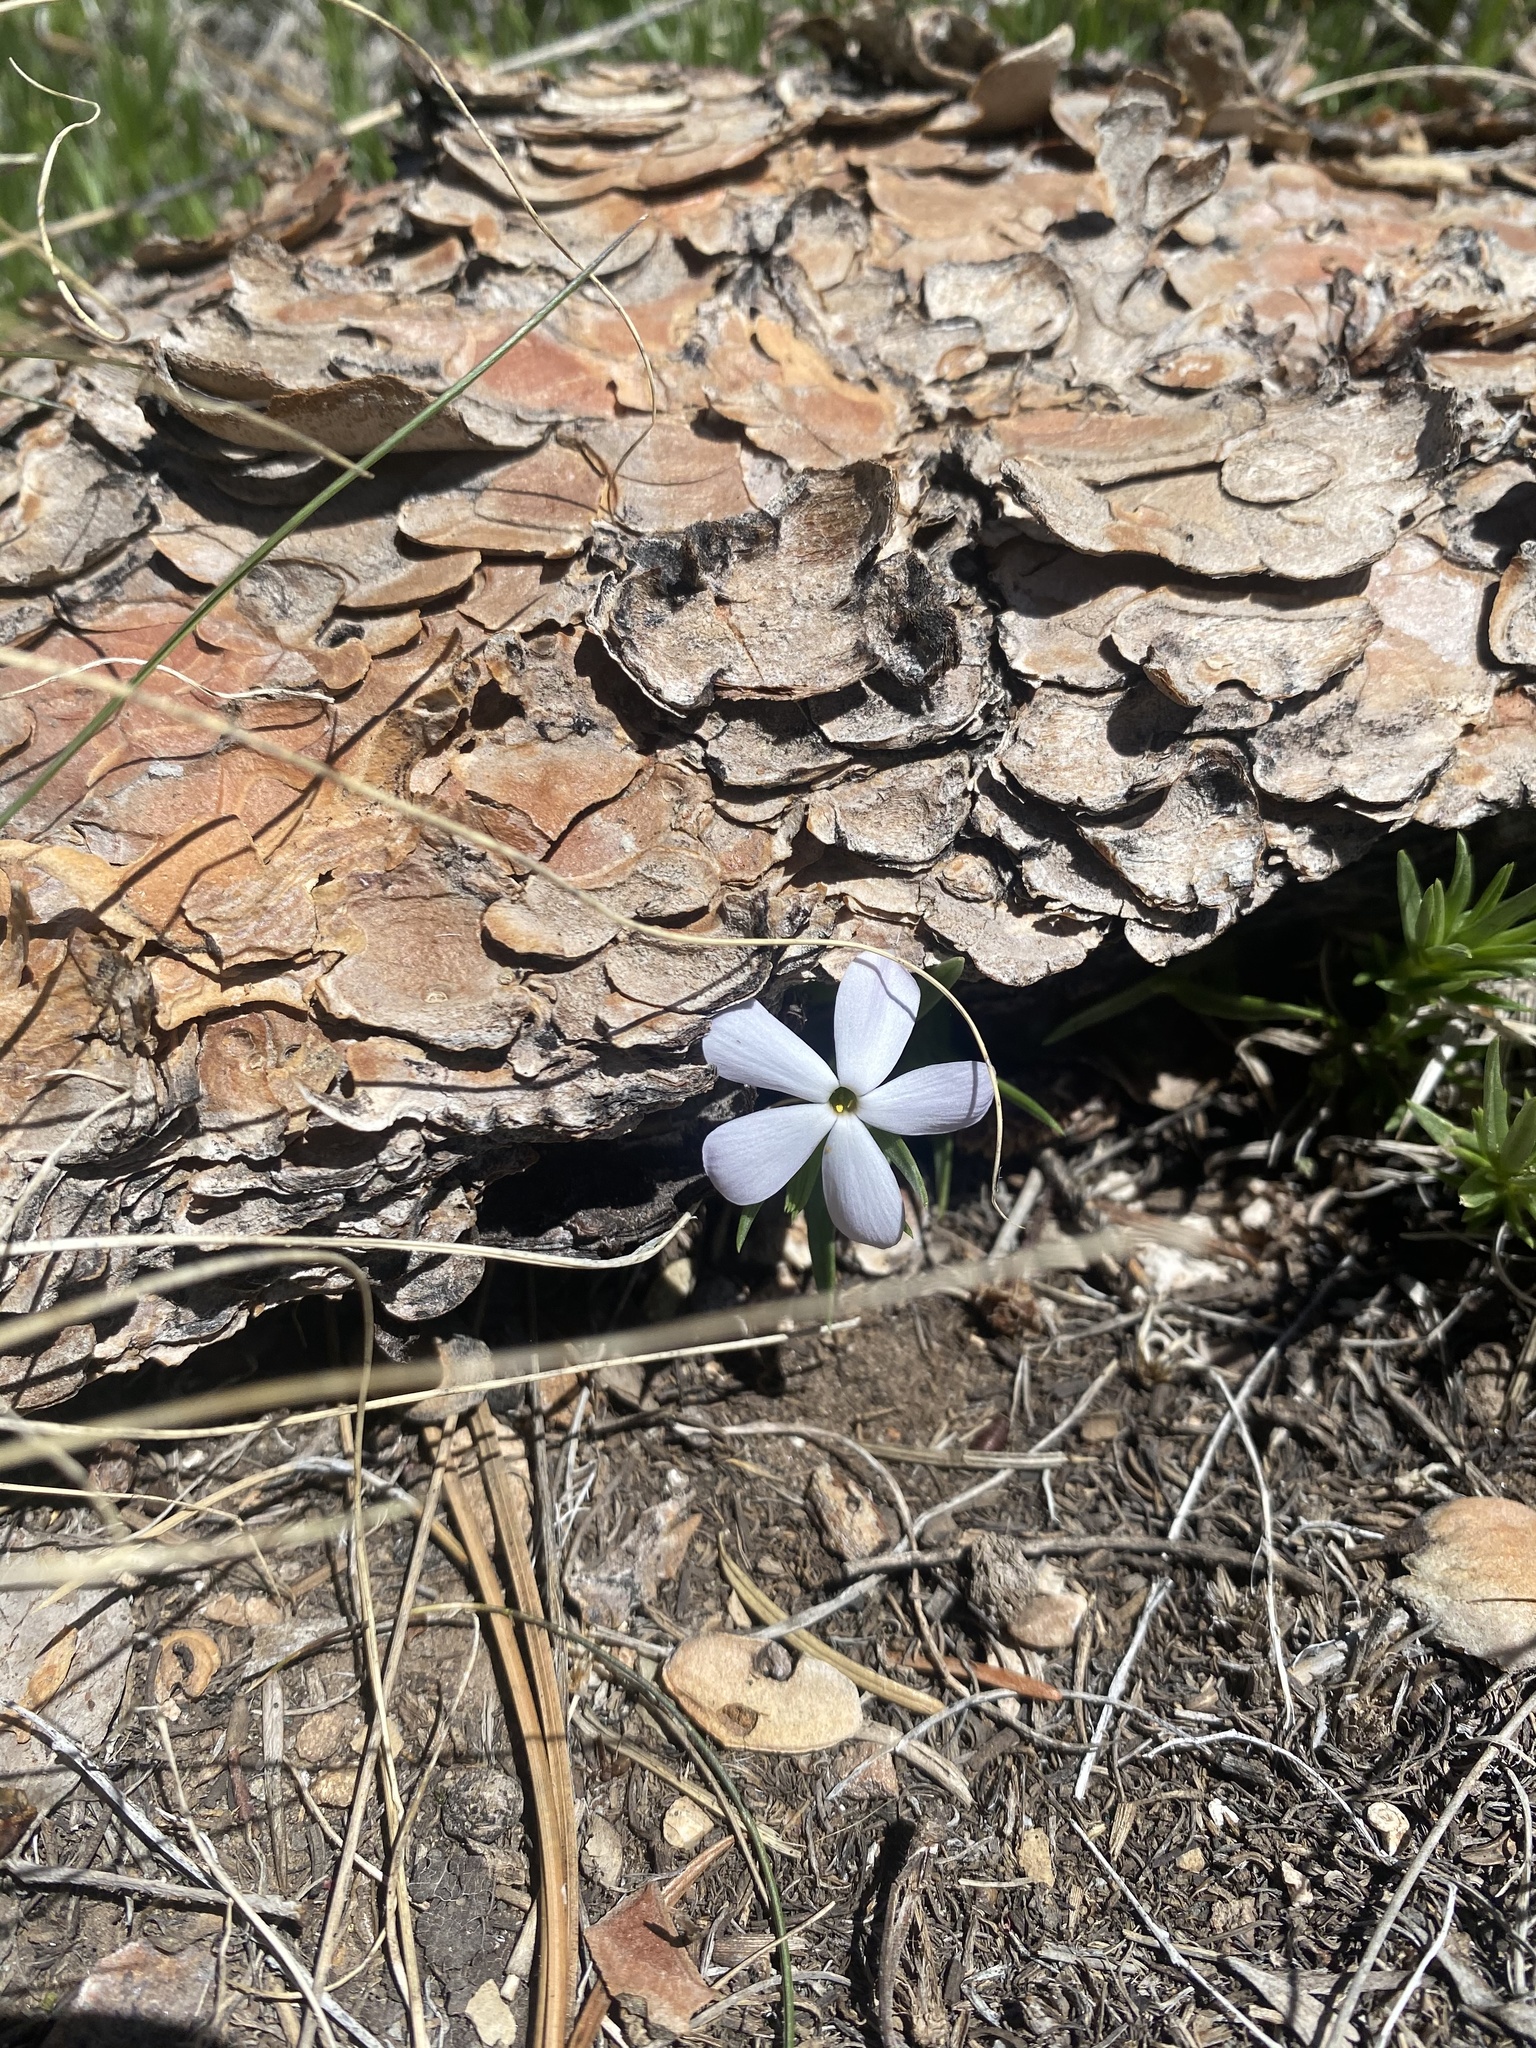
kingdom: Plantae
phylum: Tracheophyta
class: Magnoliopsida
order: Ericales
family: Polemoniaceae
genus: Phlox
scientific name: Phlox multiflora
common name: Rocky mountain phlox
